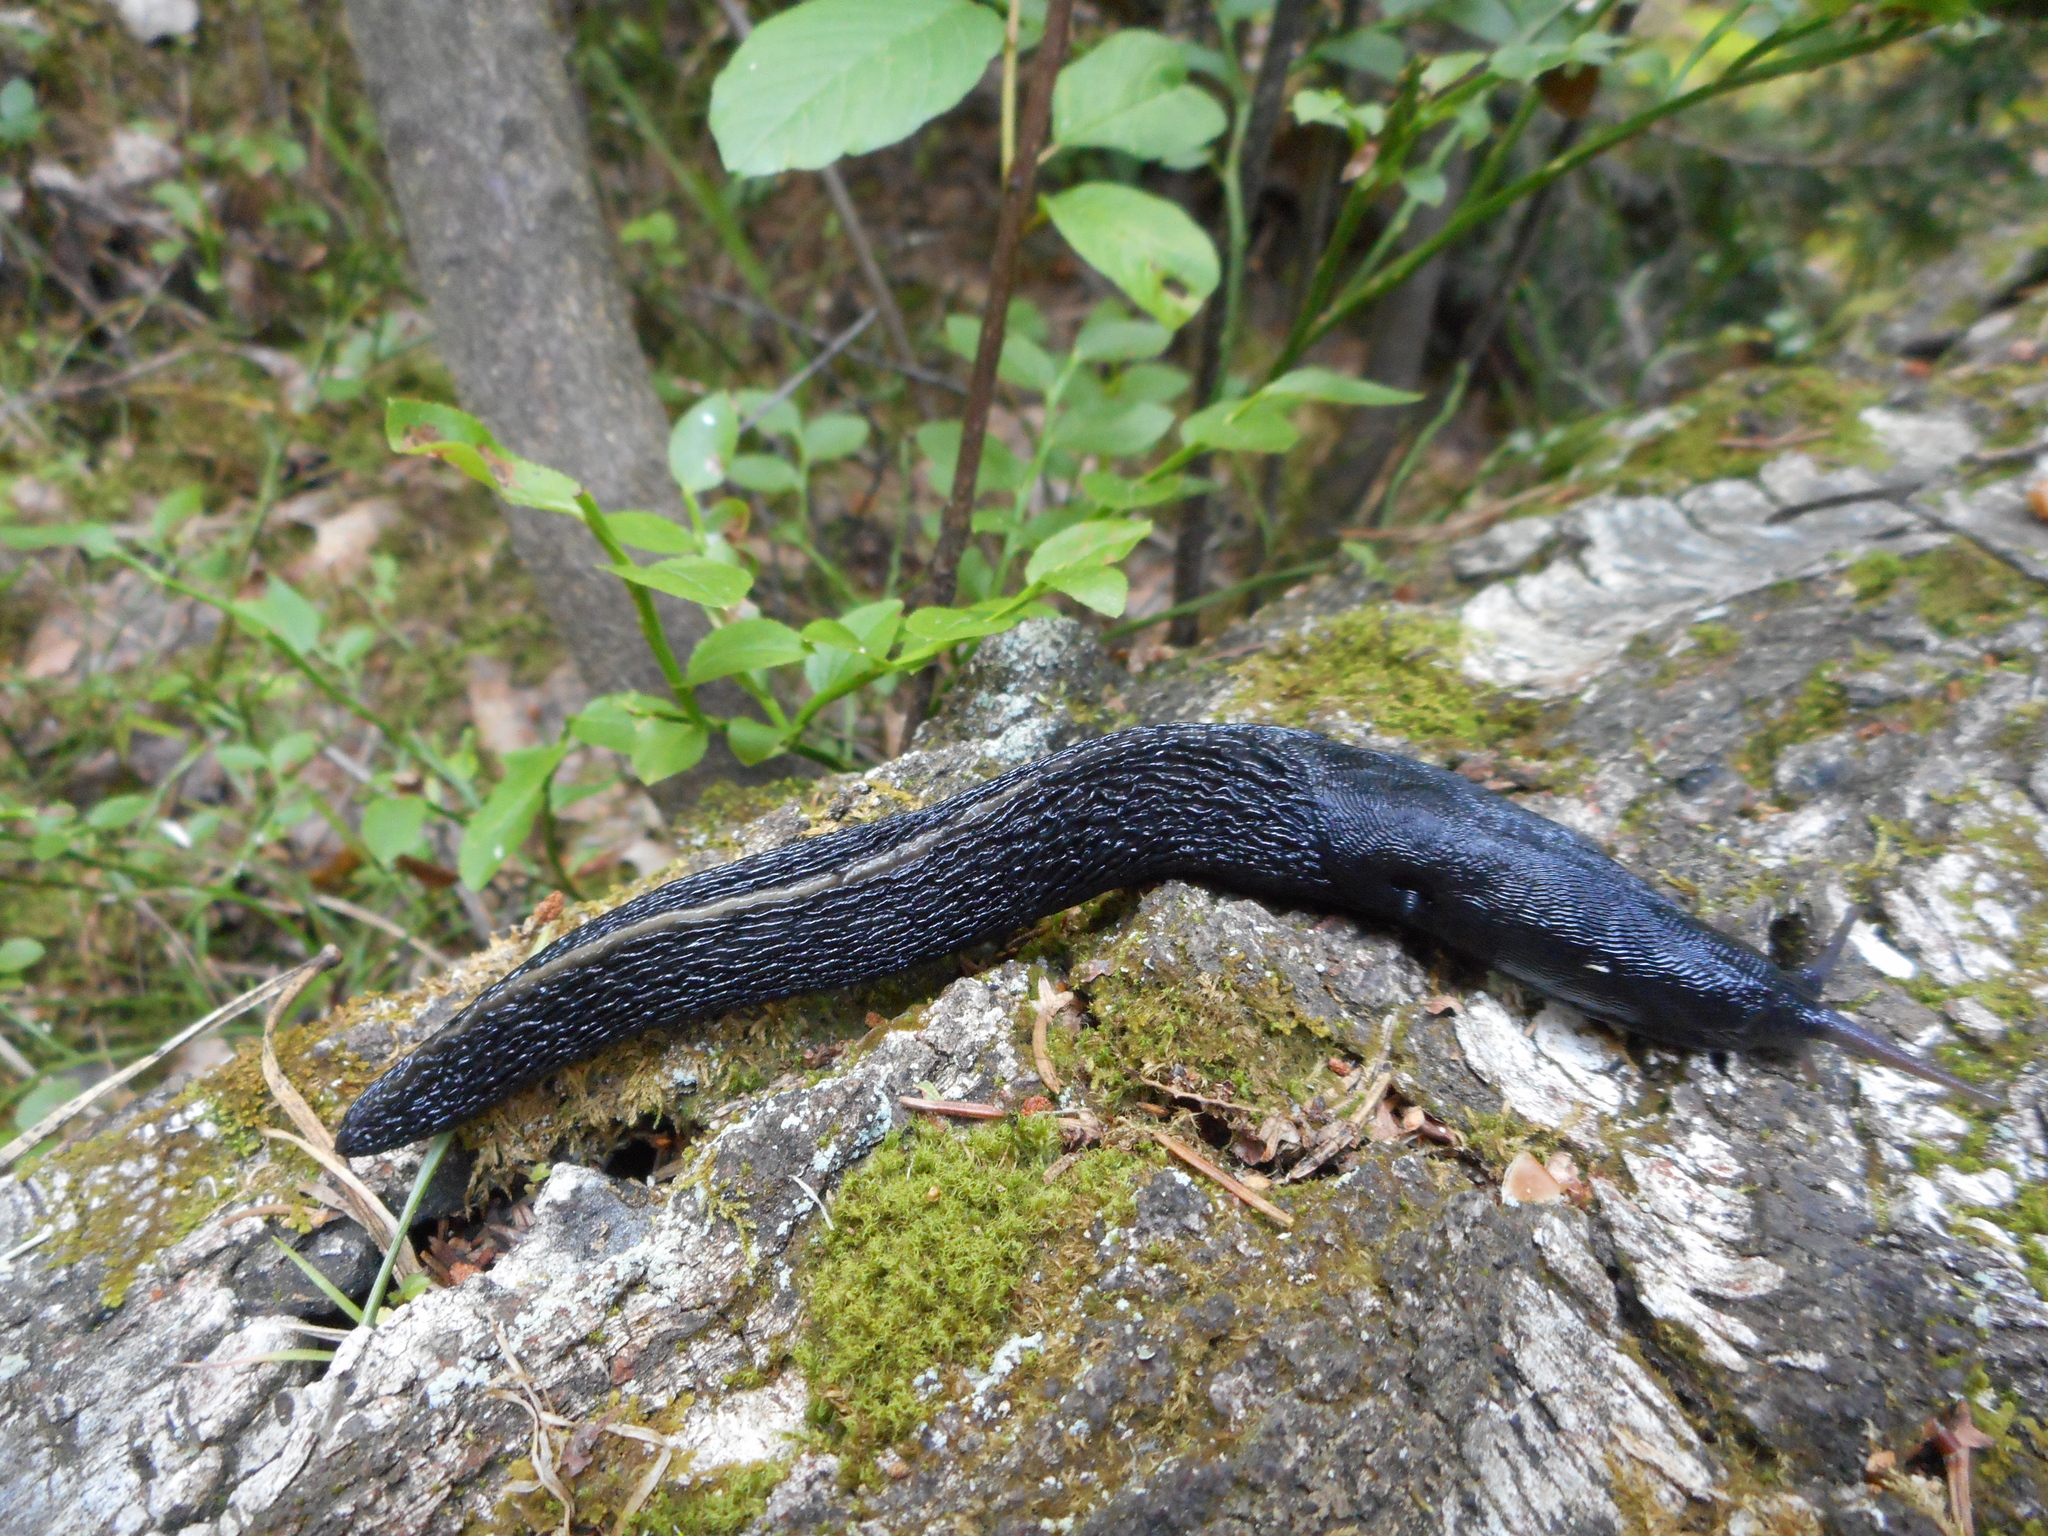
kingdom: Animalia
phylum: Mollusca
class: Gastropoda
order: Stylommatophora
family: Limacidae
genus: Limax
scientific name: Limax cinereoniger
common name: Ash-black slug
